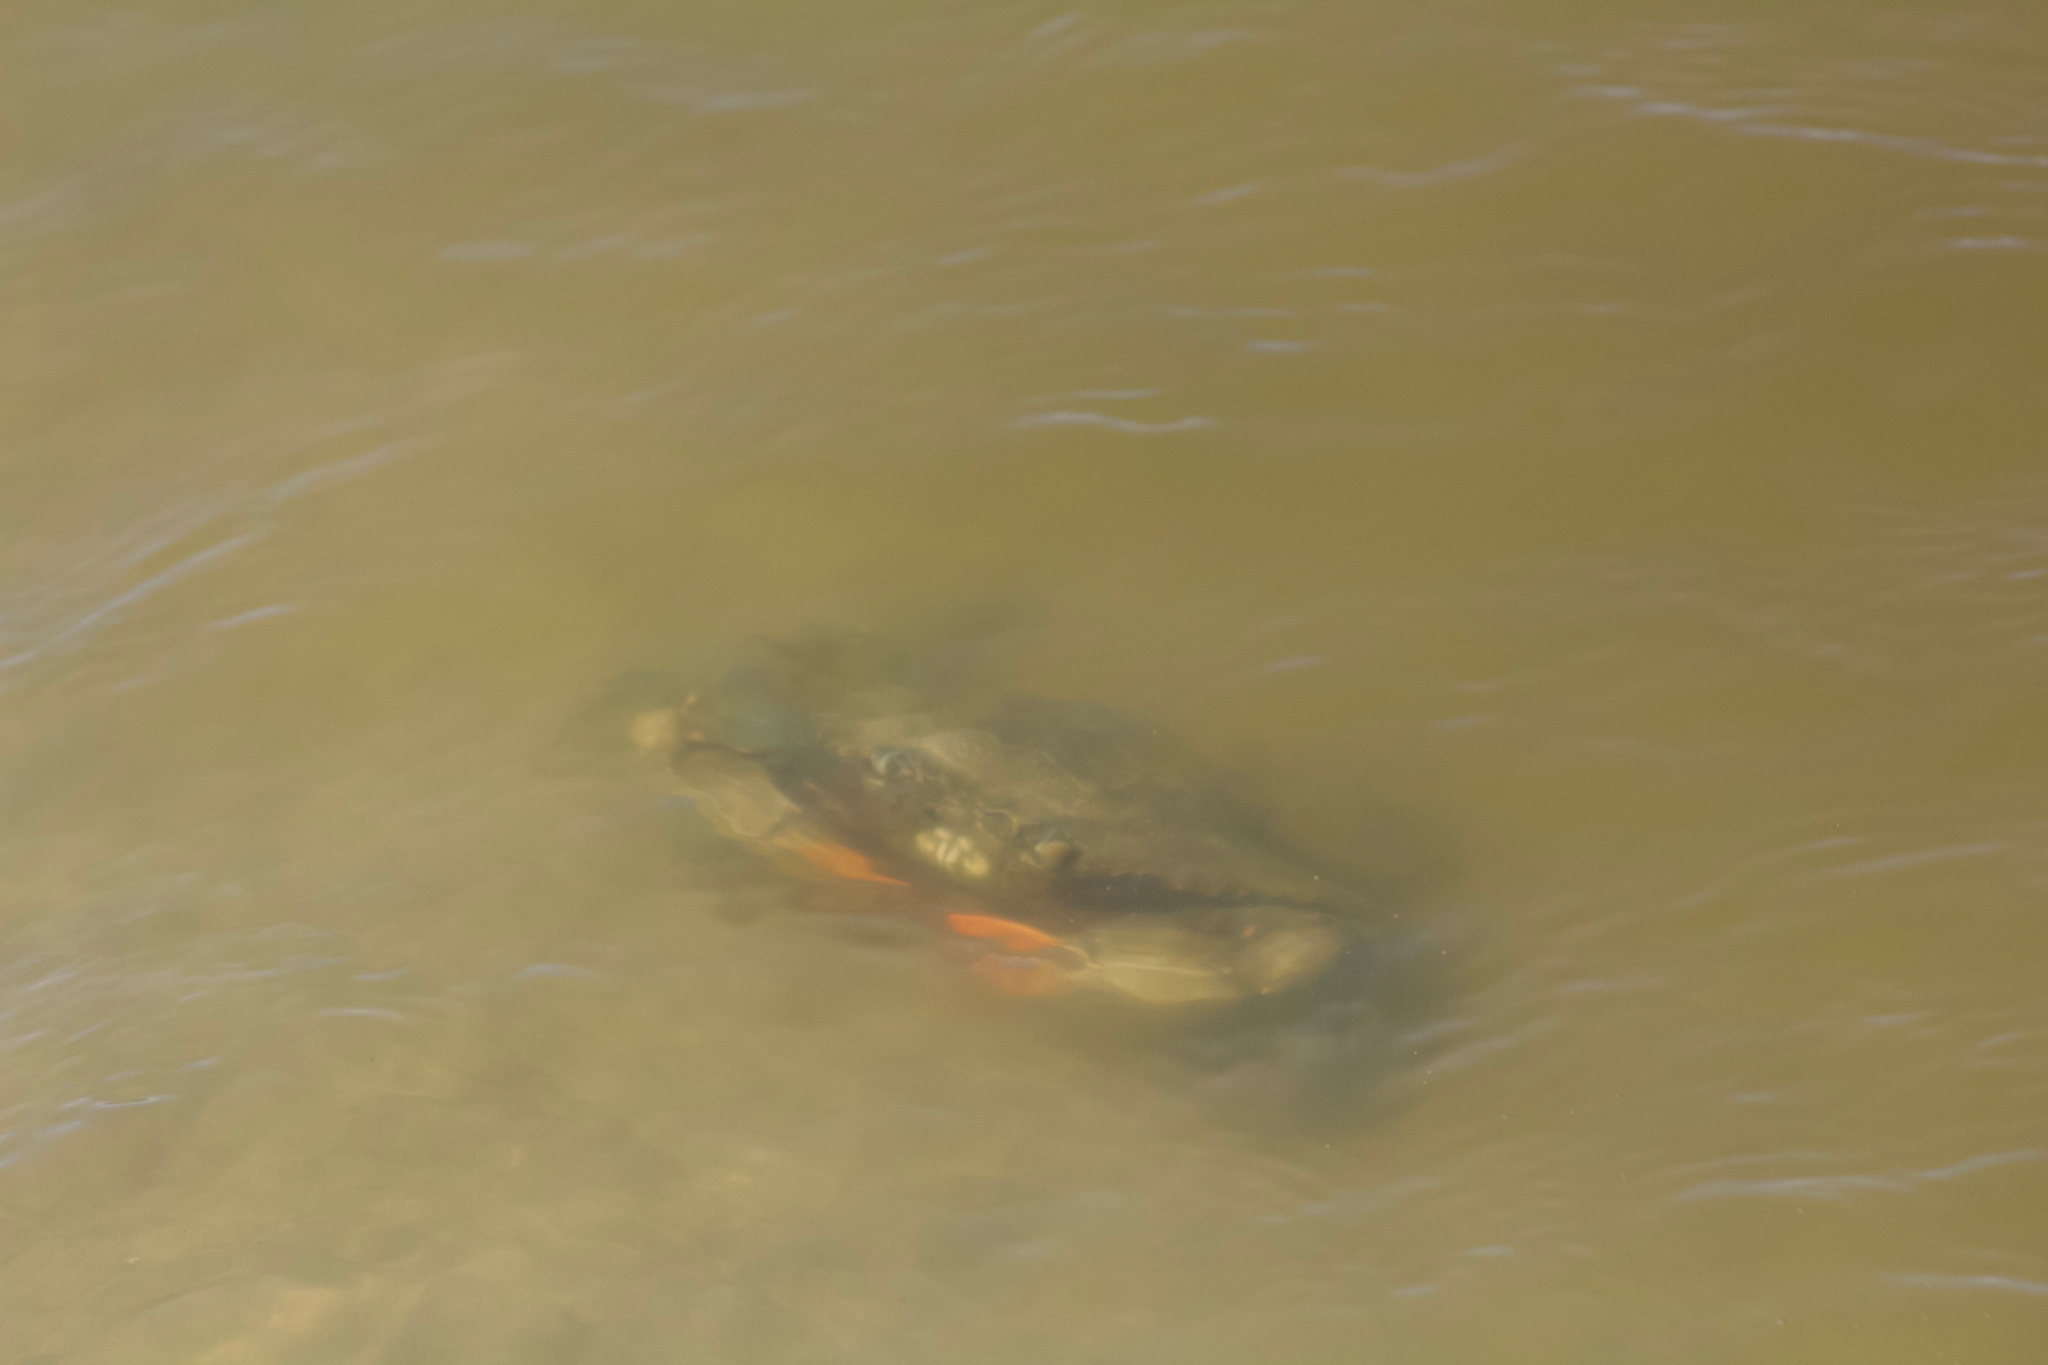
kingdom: Animalia
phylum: Arthropoda
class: Malacostraca
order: Decapoda
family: Portunidae
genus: Callinectes
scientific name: Callinectes sapidus
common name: Blue crab
